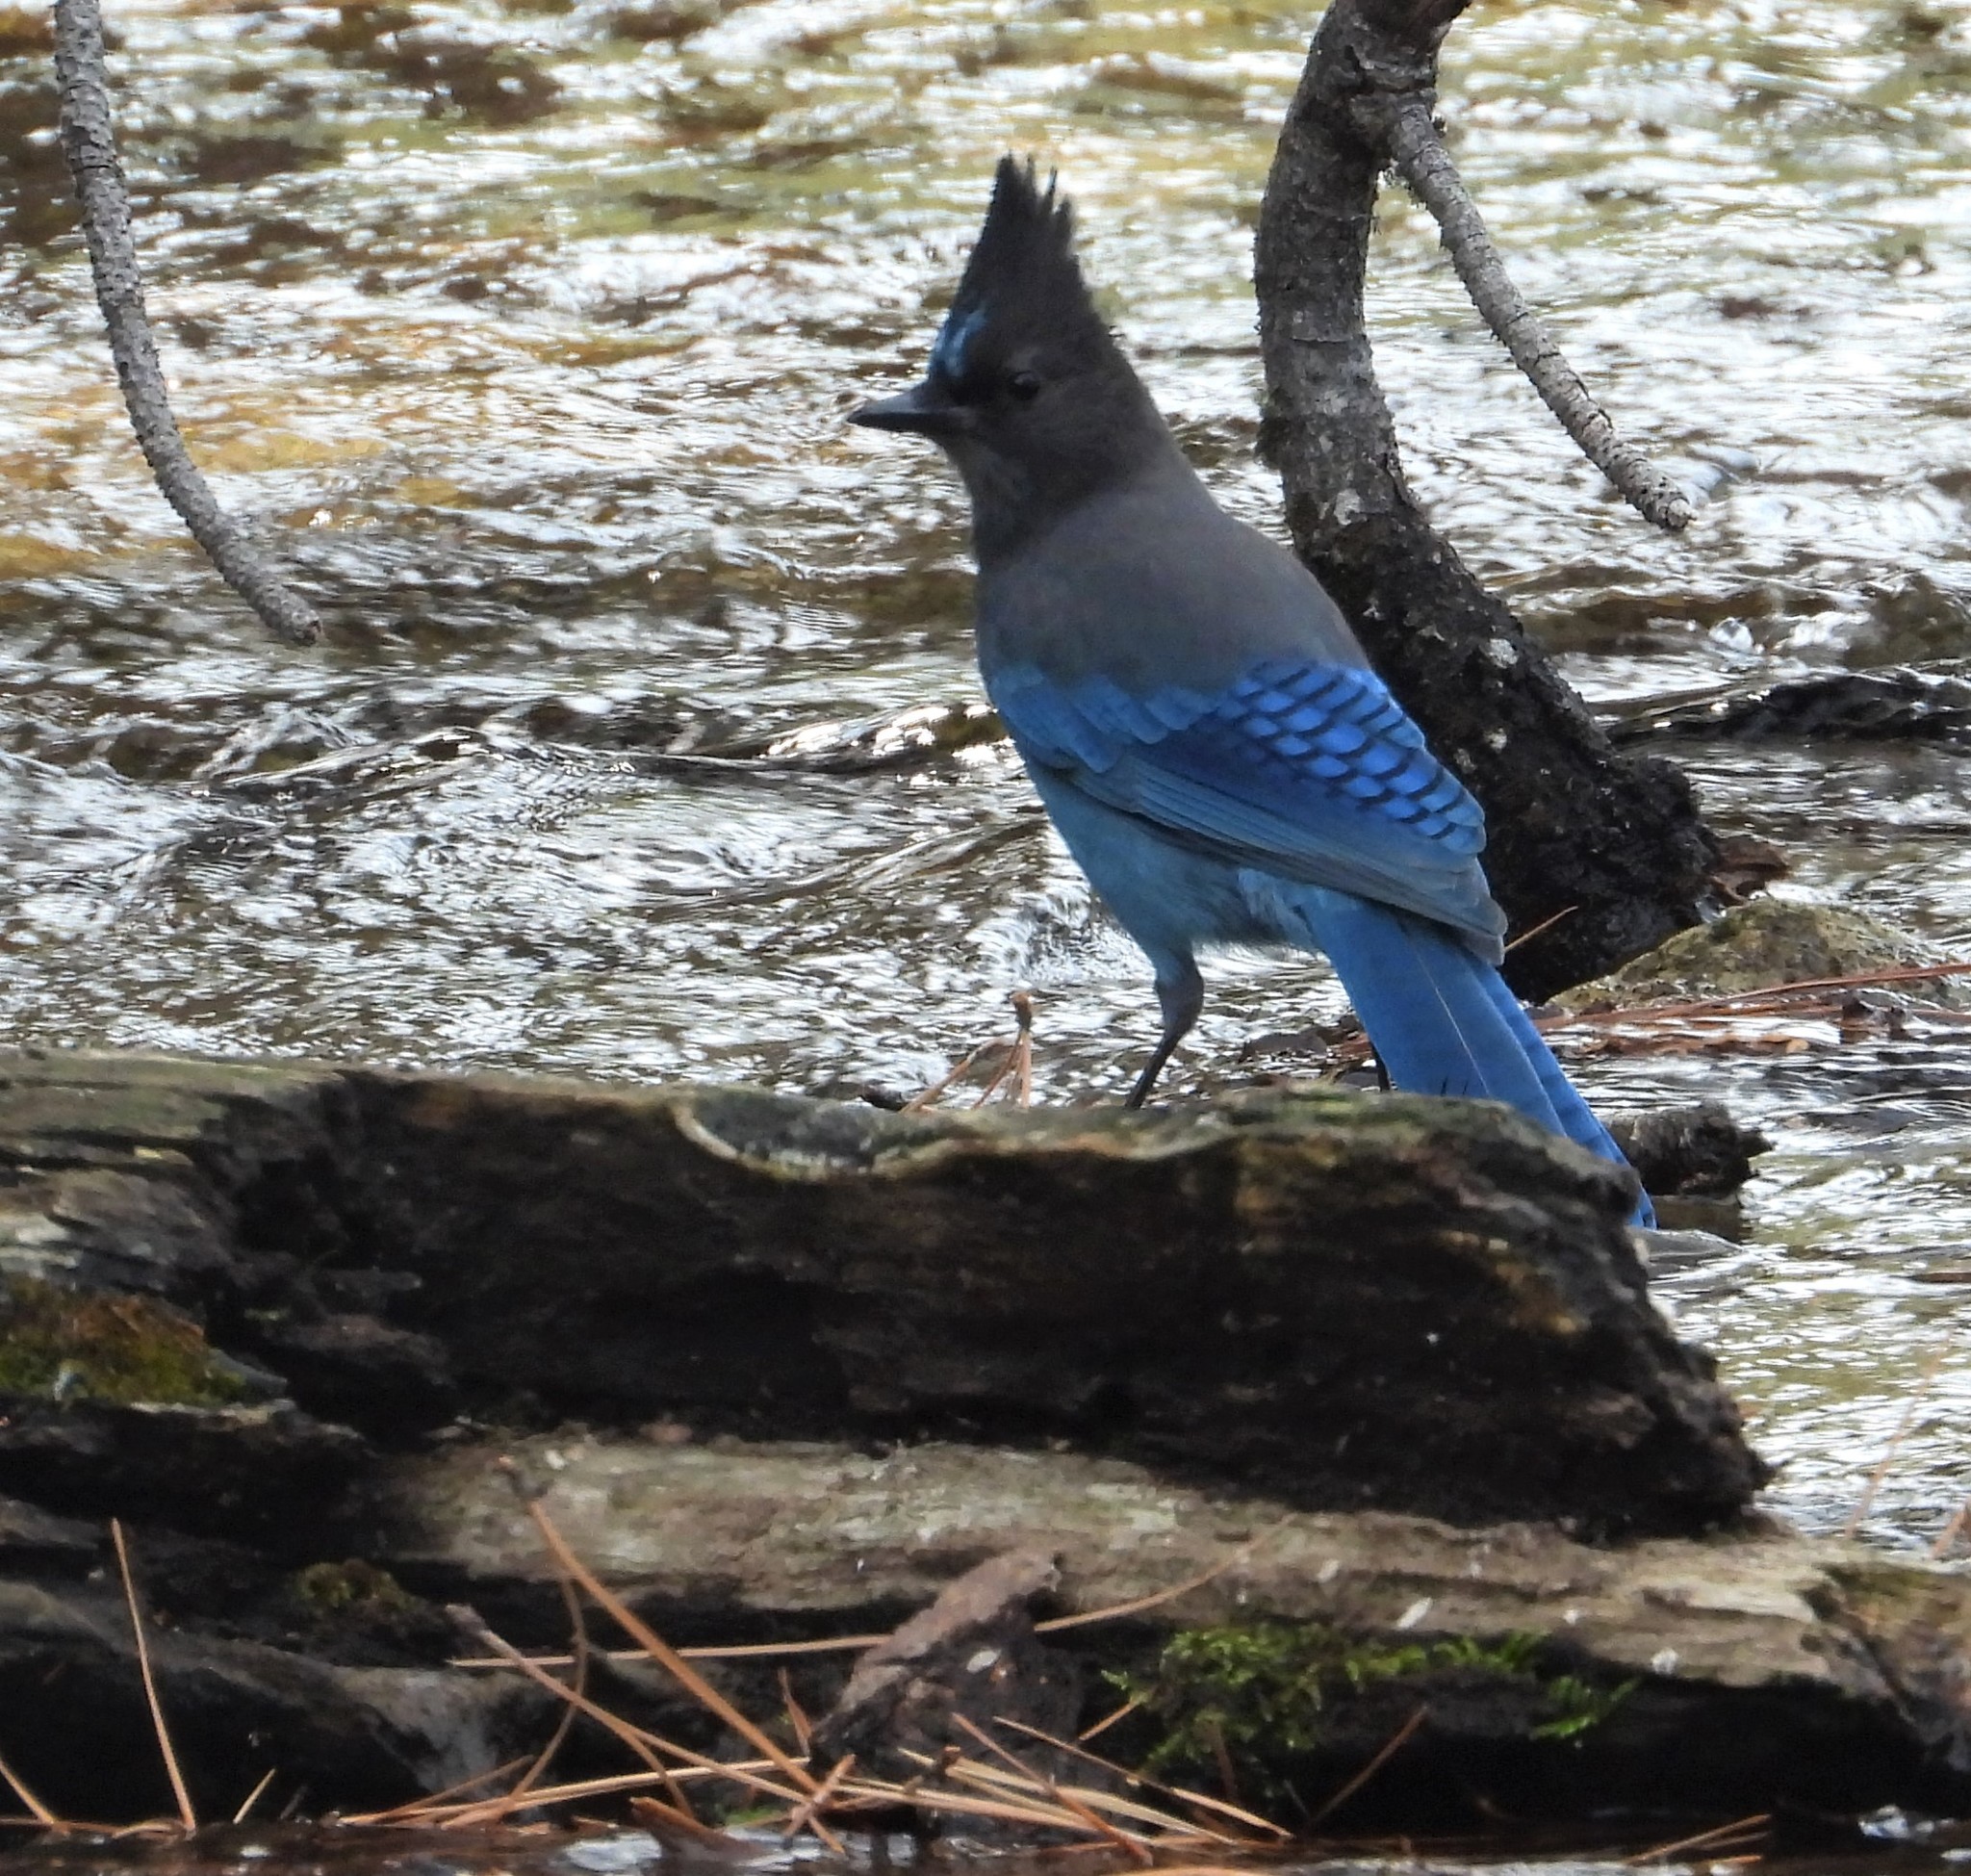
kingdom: Animalia
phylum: Chordata
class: Aves
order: Passeriformes
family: Corvidae
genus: Cyanocitta
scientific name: Cyanocitta stelleri
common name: Steller's jay
